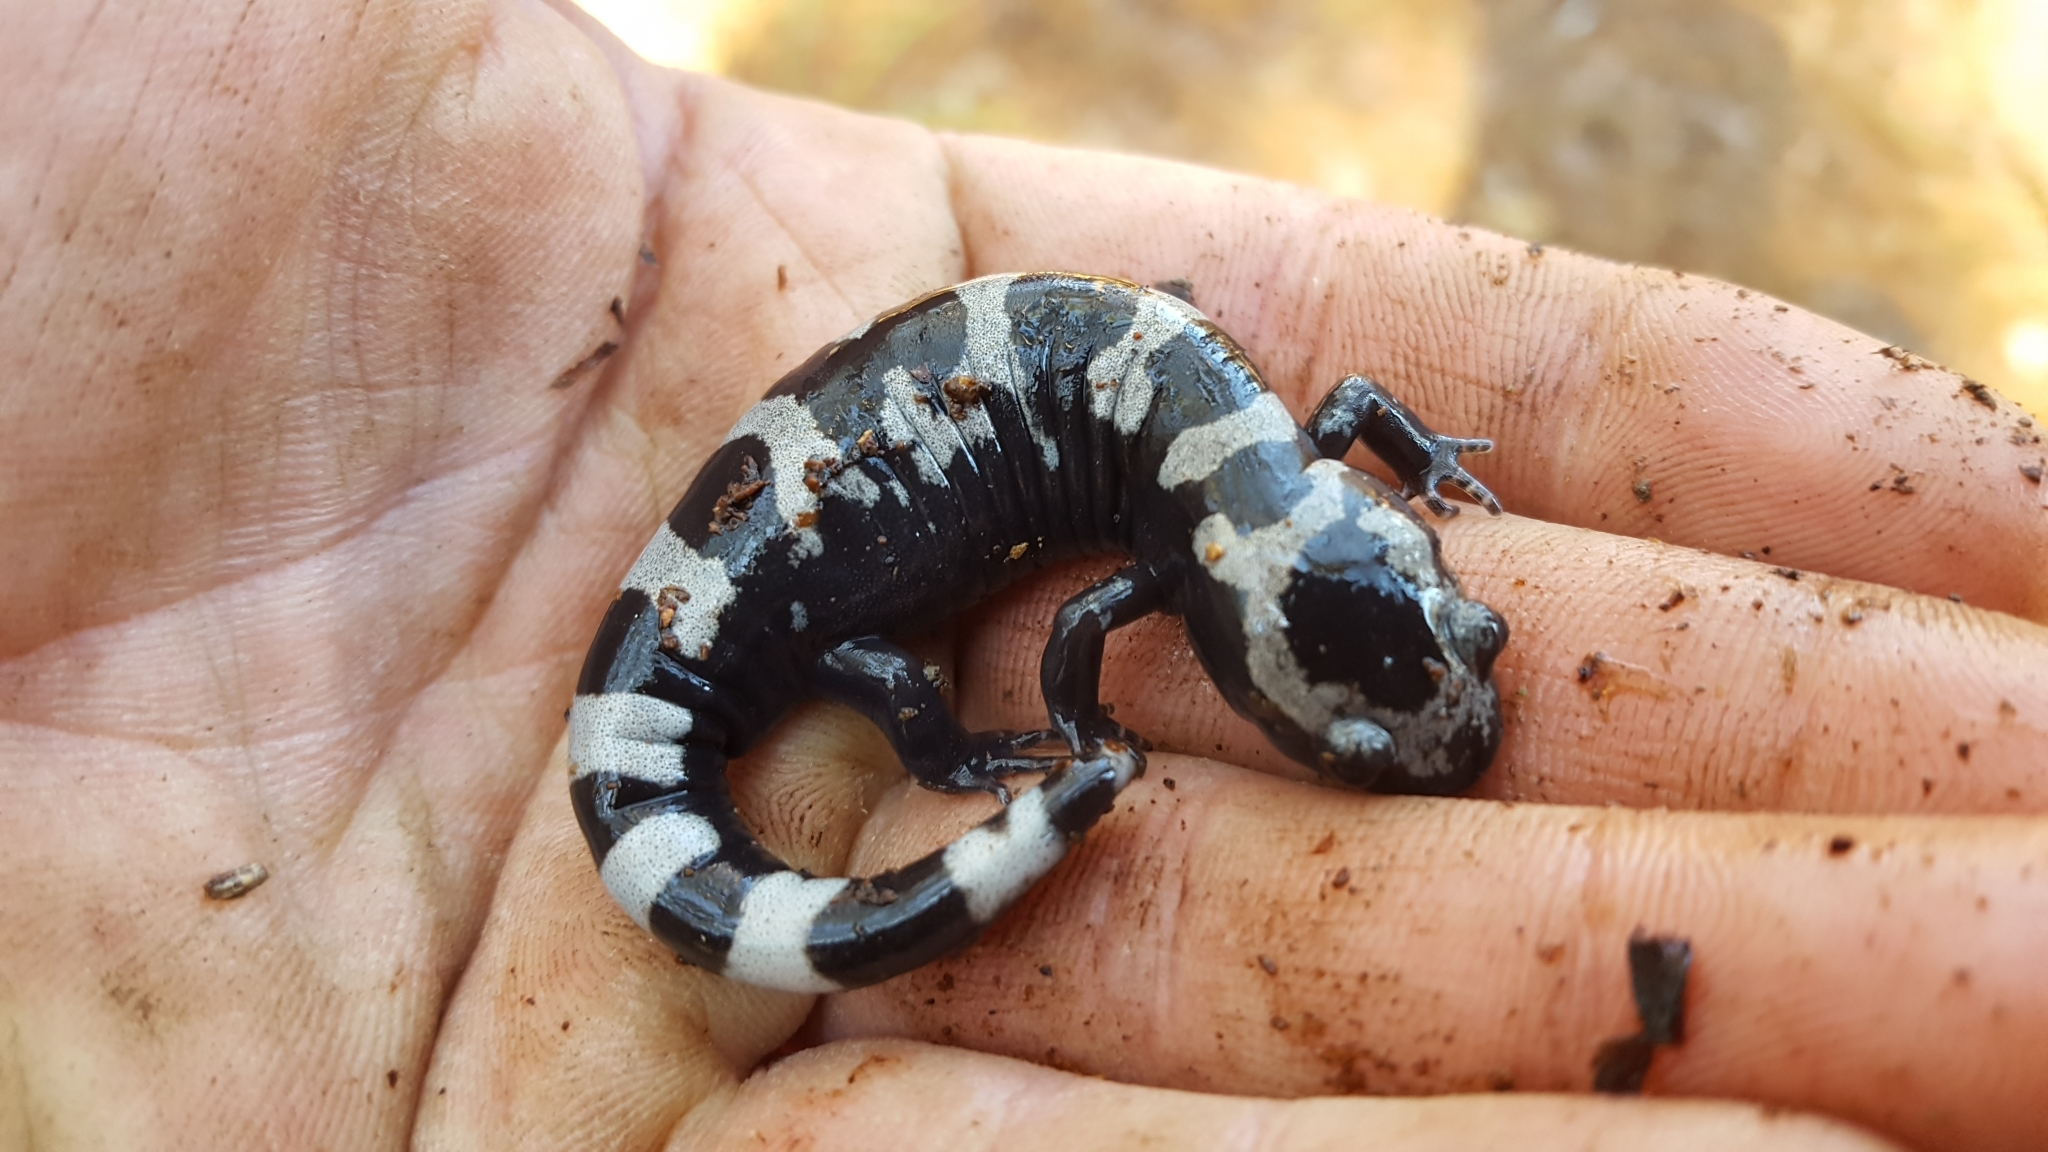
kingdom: Animalia
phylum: Chordata
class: Amphibia
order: Caudata
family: Ambystomatidae
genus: Ambystoma
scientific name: Ambystoma opacum
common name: Marbled salamander
